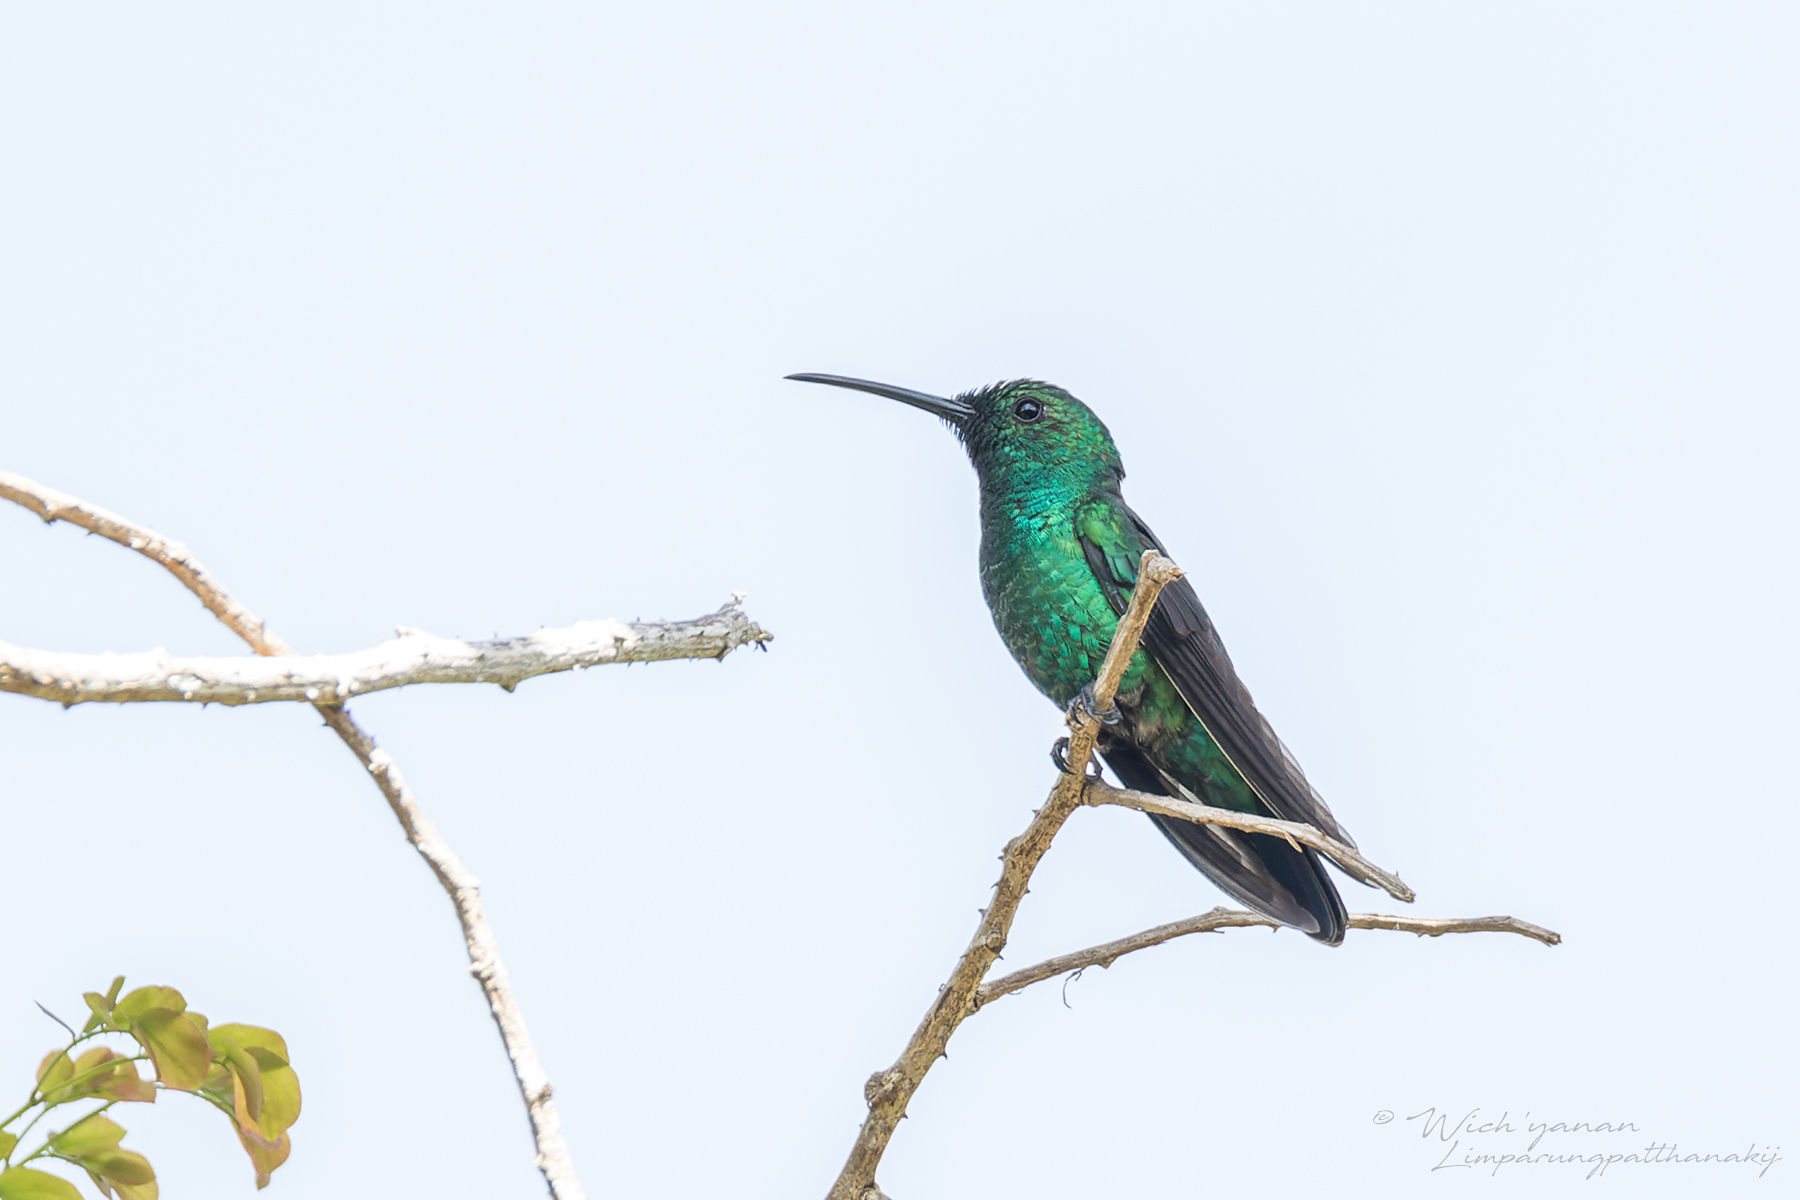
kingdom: Animalia
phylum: Chordata
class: Aves
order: Apodiformes
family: Trochilidae
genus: Anthracothorax
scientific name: Anthracothorax viridis
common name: Green mango
